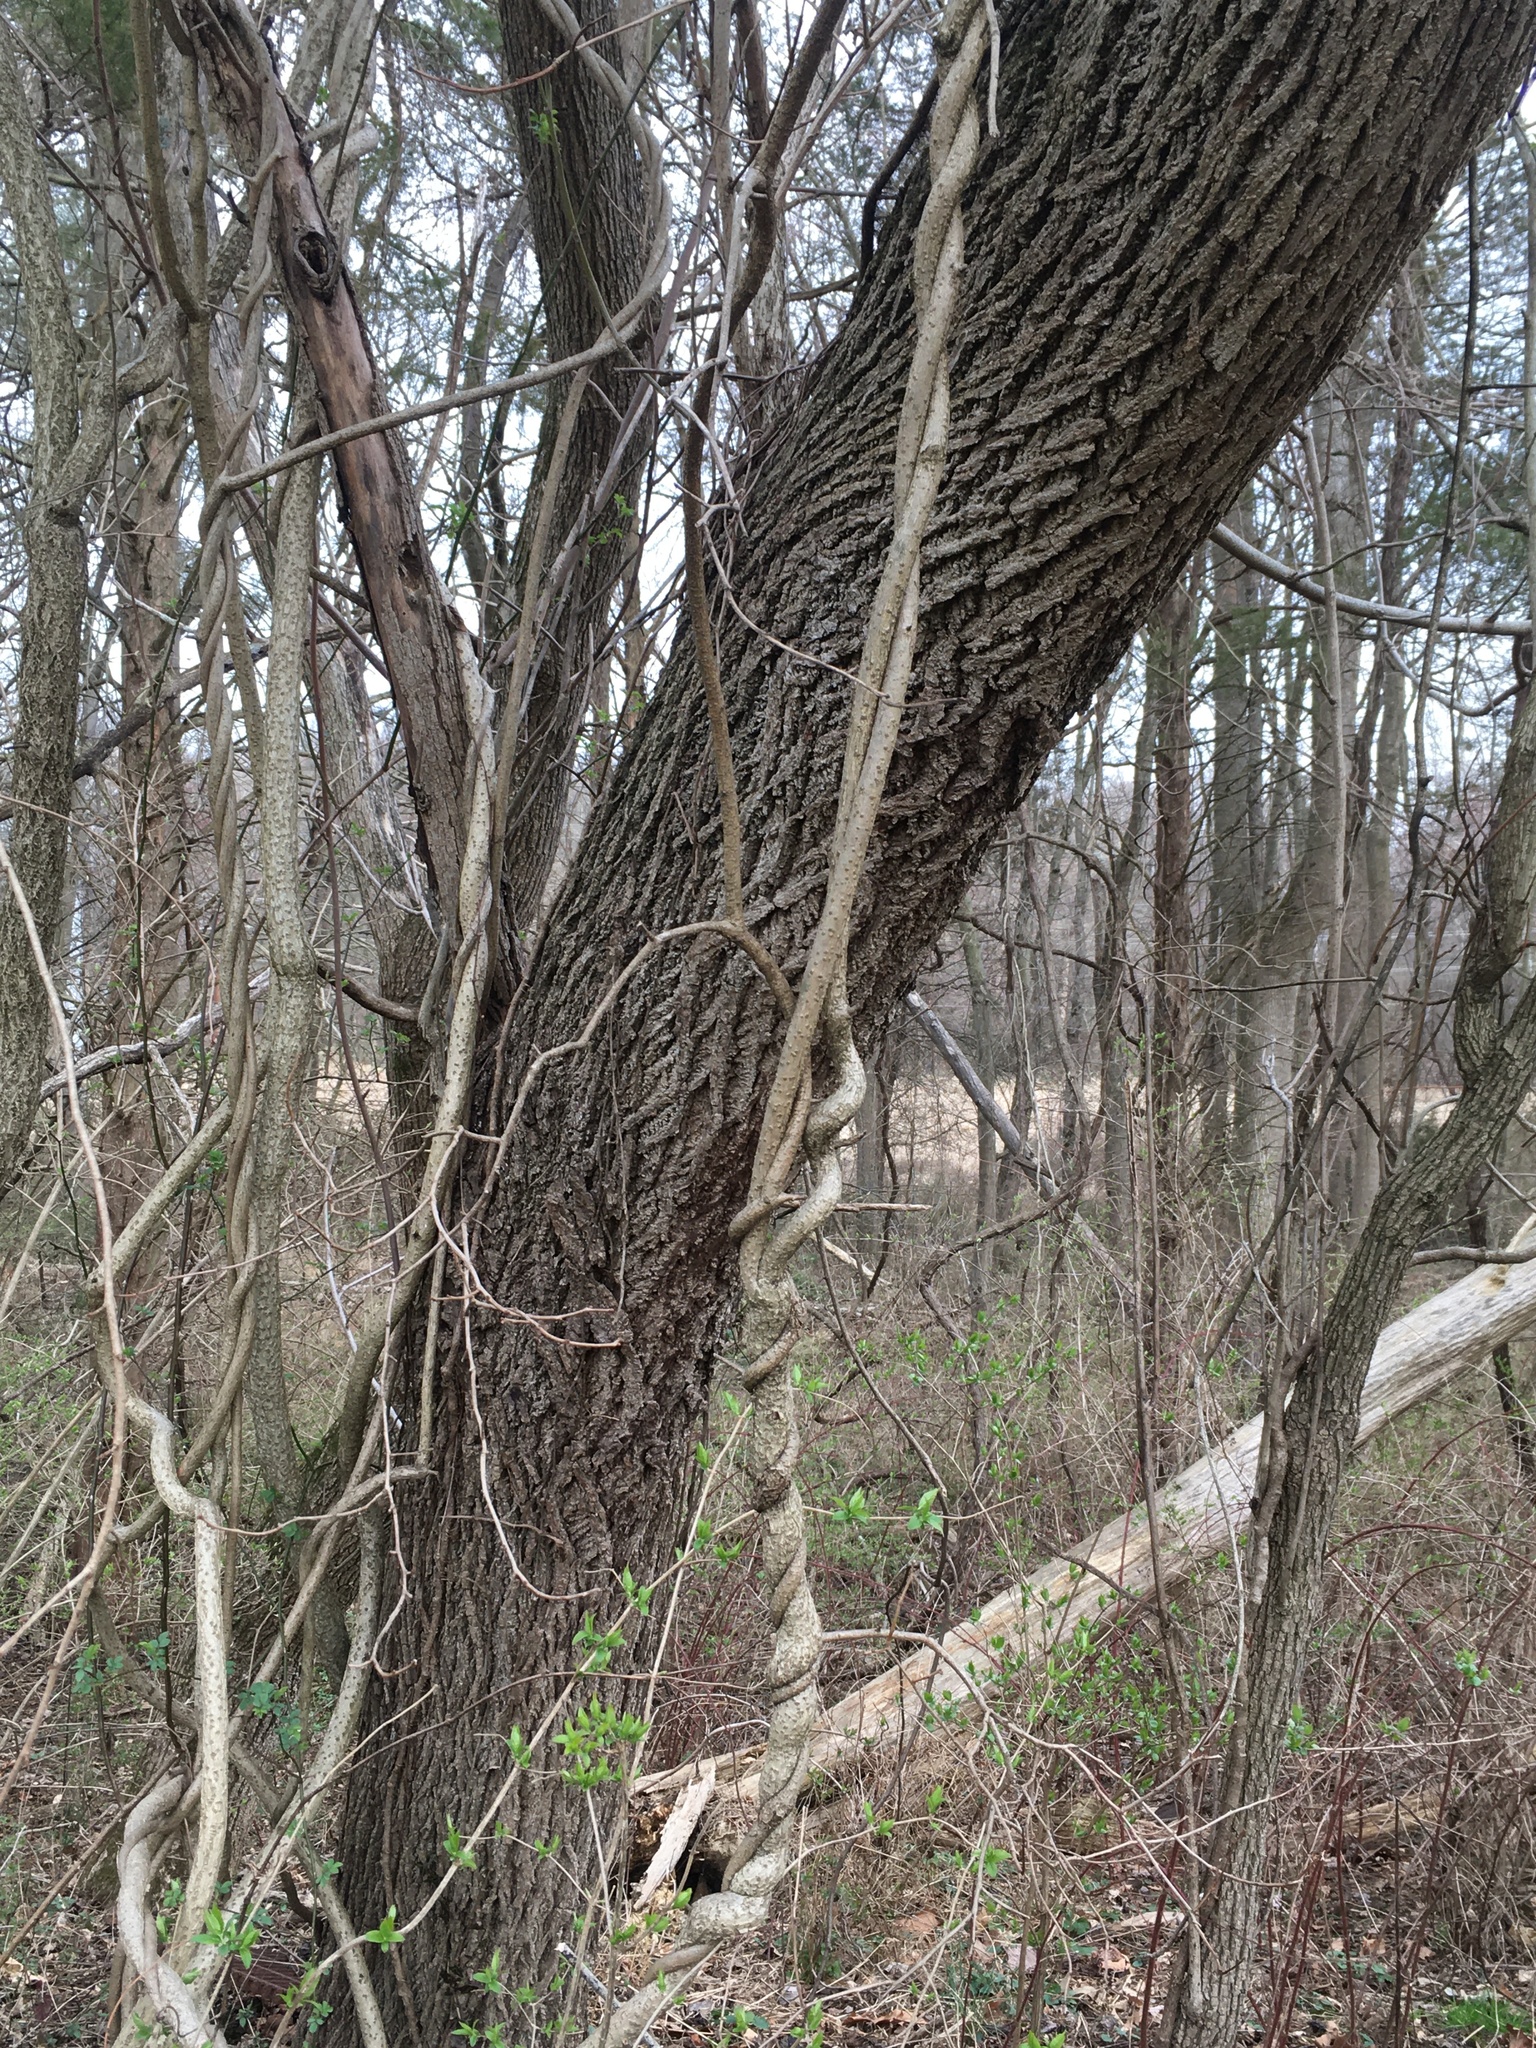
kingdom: Plantae
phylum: Tracheophyta
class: Magnoliopsida
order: Celastrales
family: Celastraceae
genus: Celastrus
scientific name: Celastrus orbiculatus
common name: Oriental bittersweet
